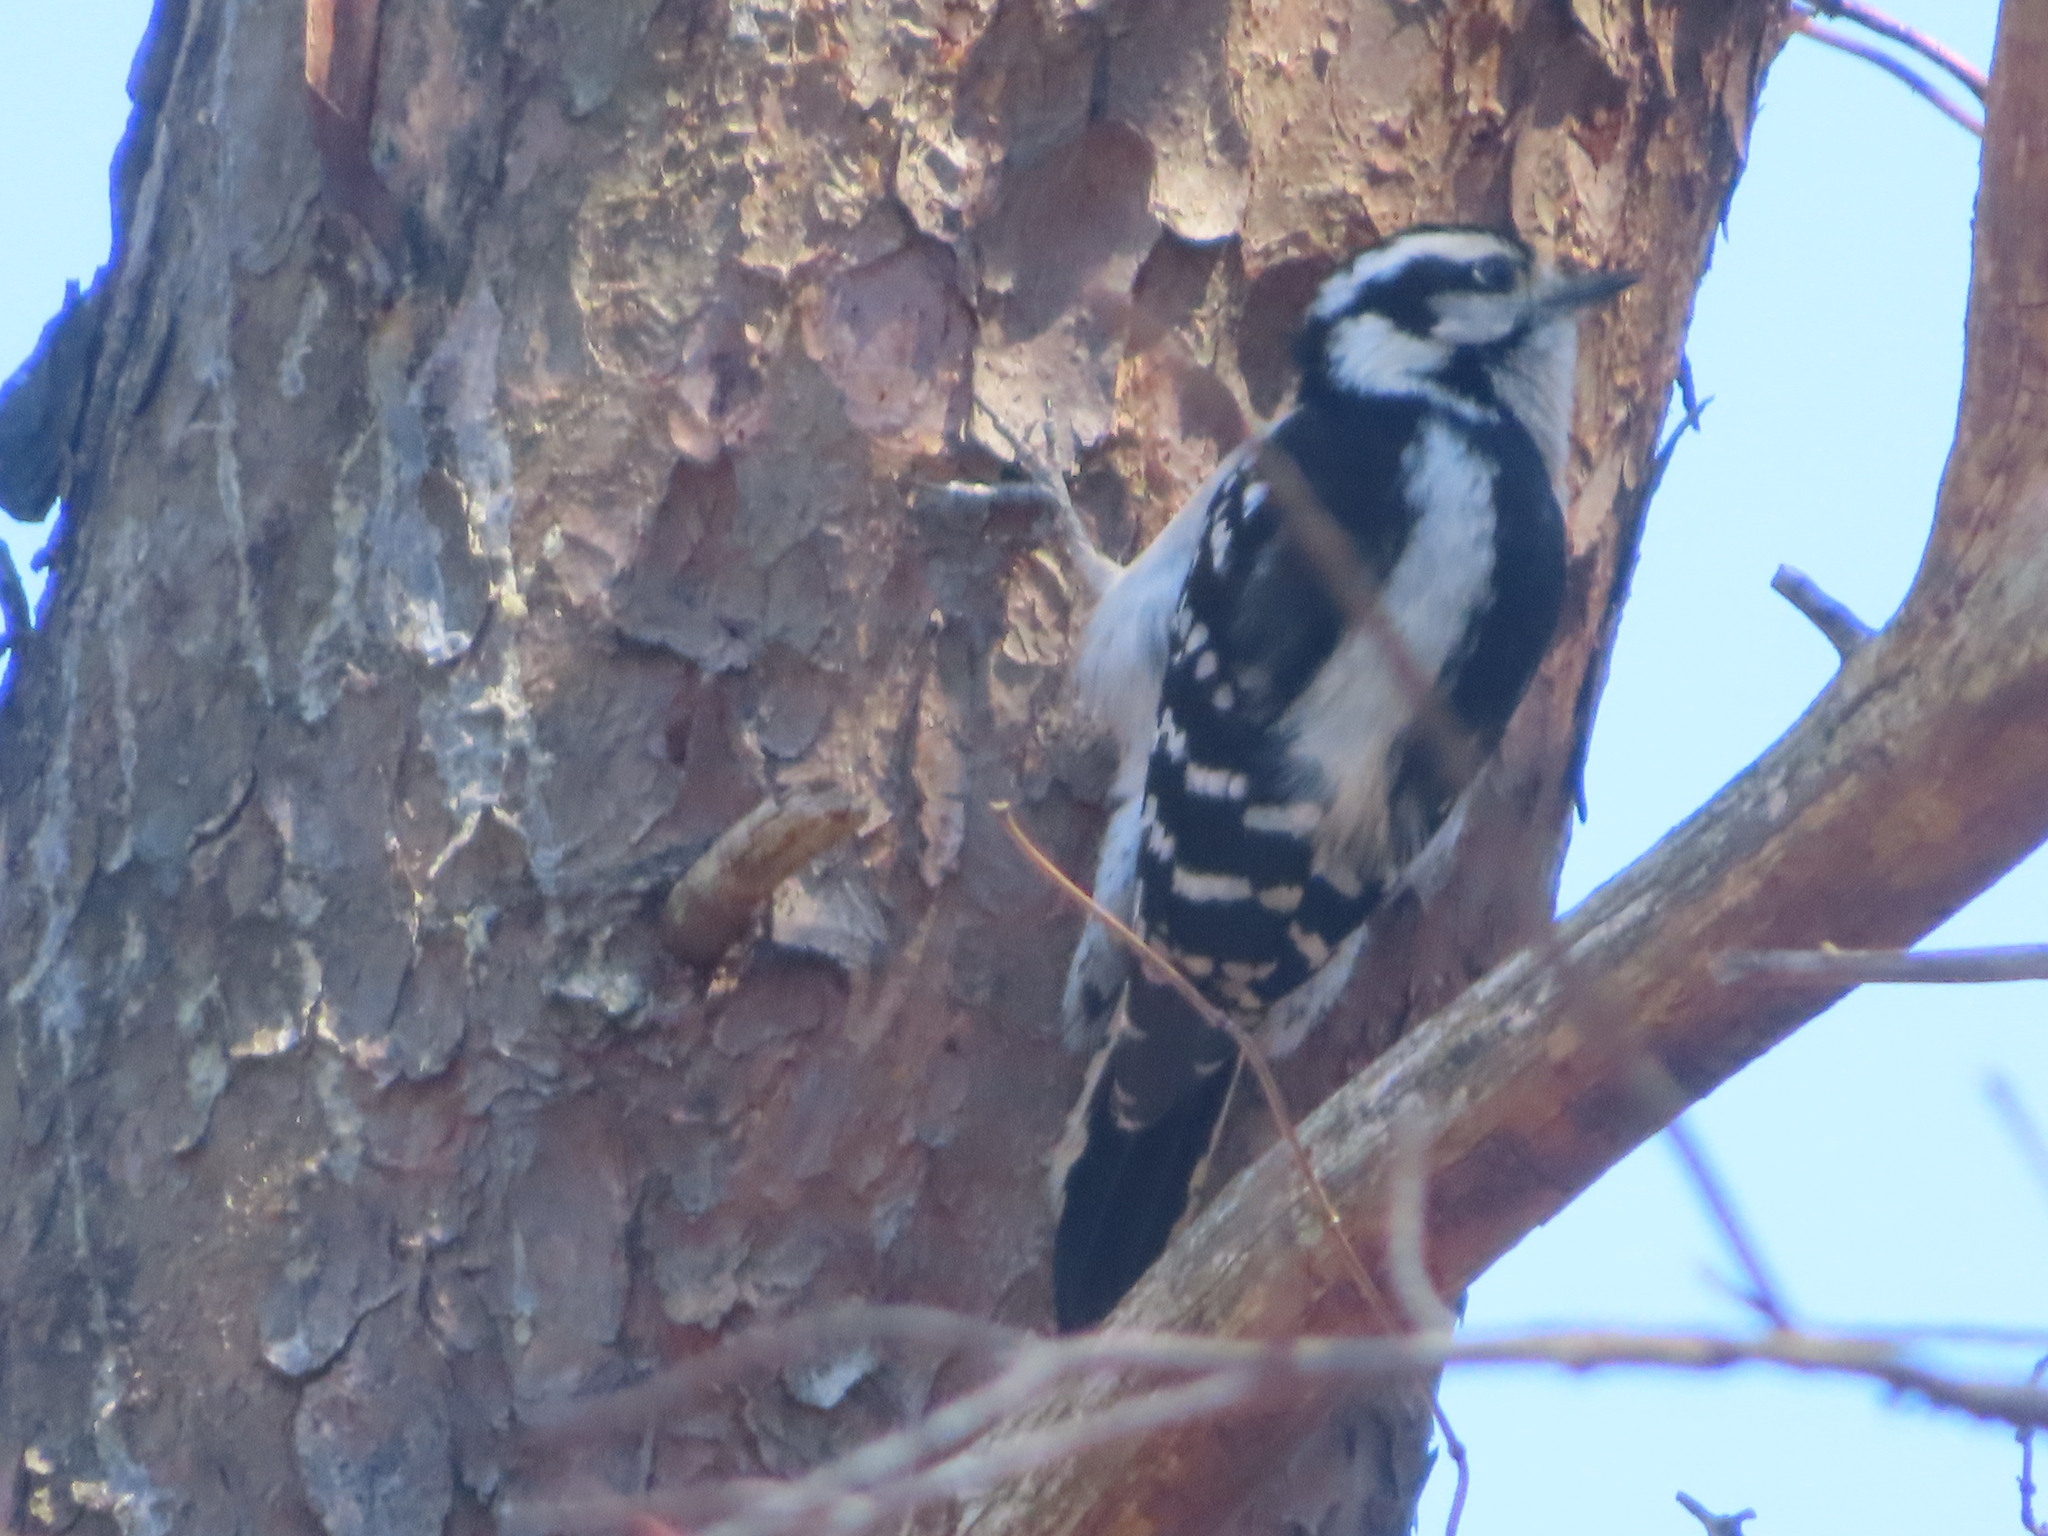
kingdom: Animalia
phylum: Chordata
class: Aves
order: Piciformes
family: Picidae
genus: Dryobates
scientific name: Dryobates pubescens
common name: Downy woodpecker
